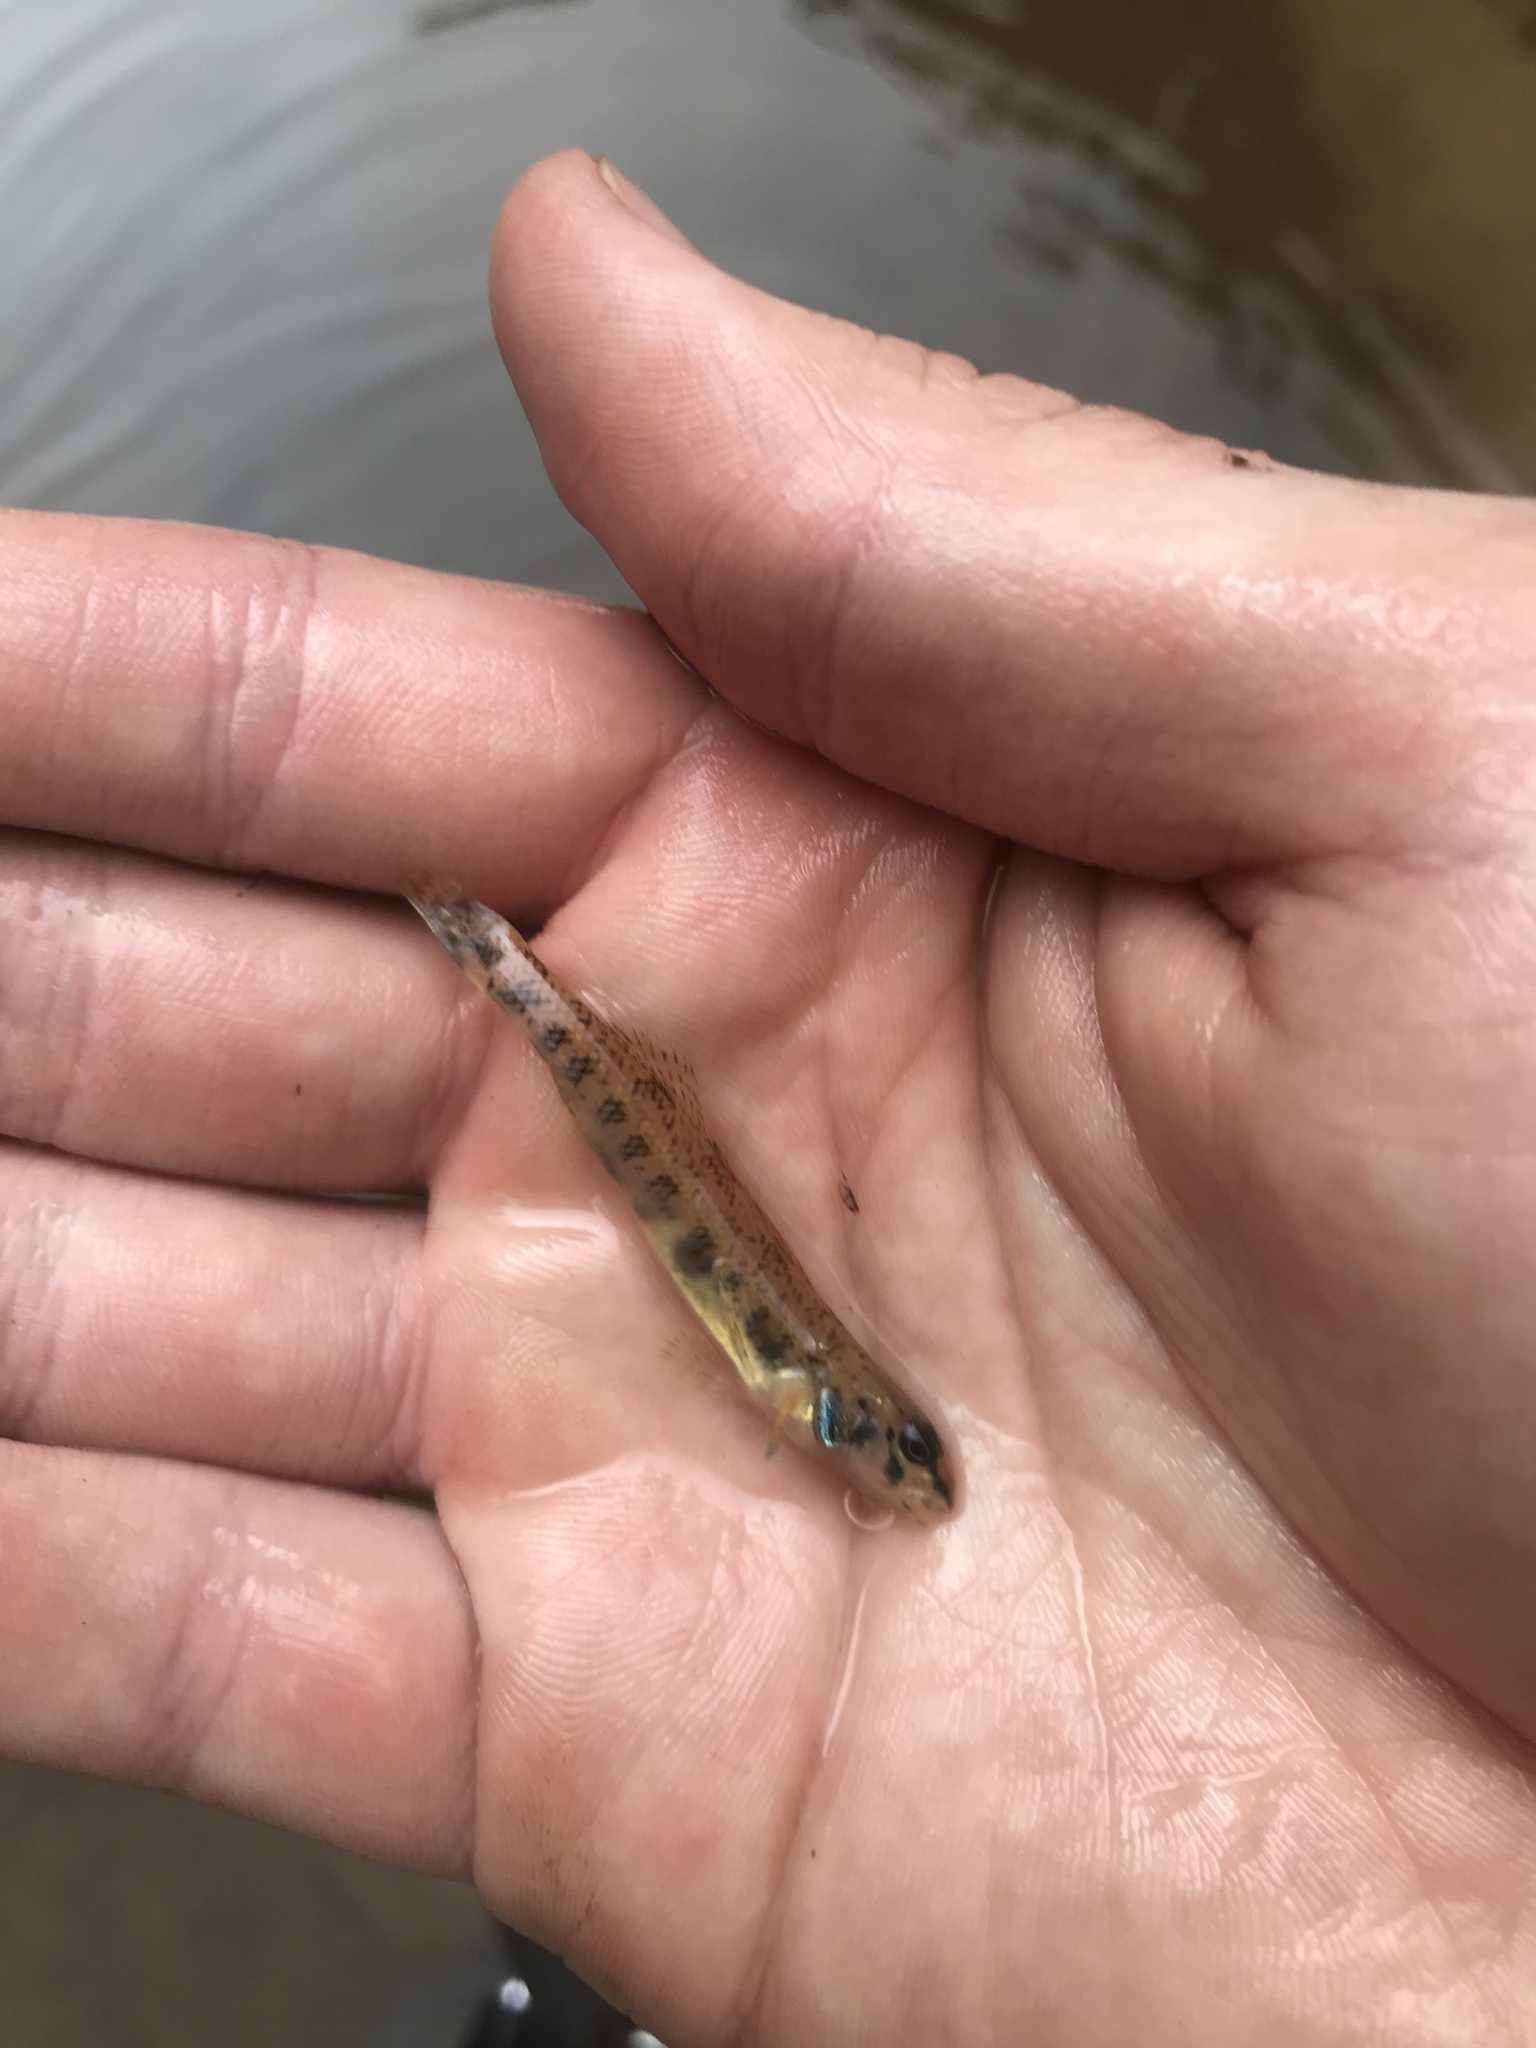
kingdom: Animalia
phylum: Chordata
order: Perciformes
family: Percidae
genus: Etheostoma
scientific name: Etheostoma stigmaeum
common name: Speckled darter
